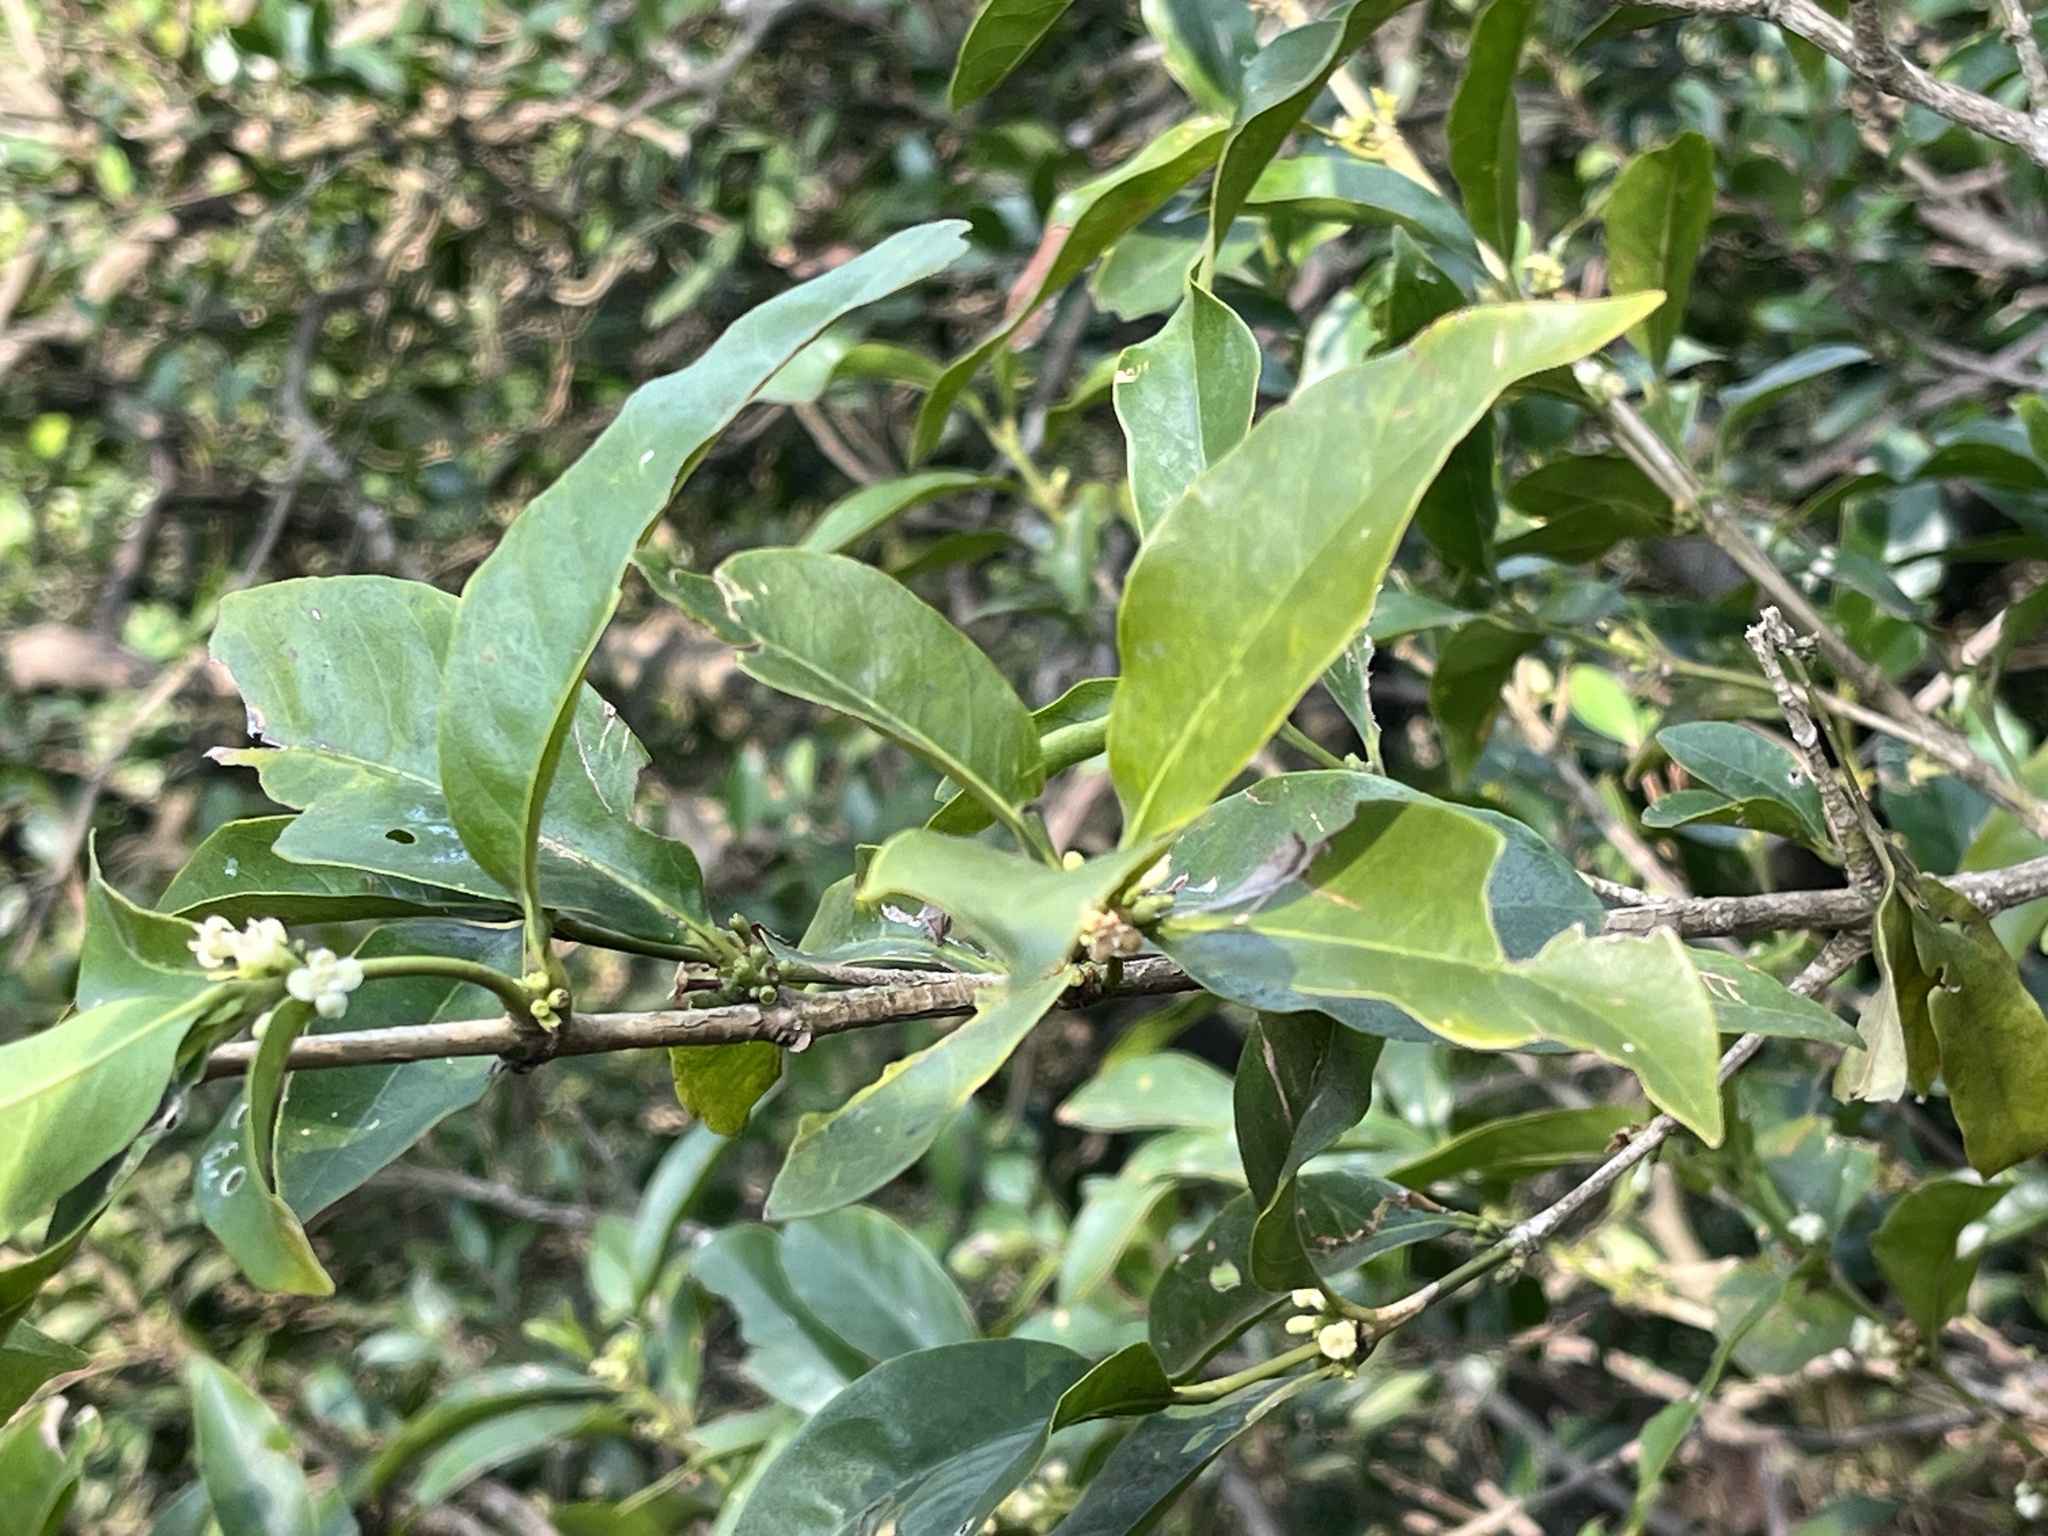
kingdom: Plantae
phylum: Tracheophyta
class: Magnoliopsida
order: Gentianales
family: Rubiaceae
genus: Diplospora
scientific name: Diplospora dubia
